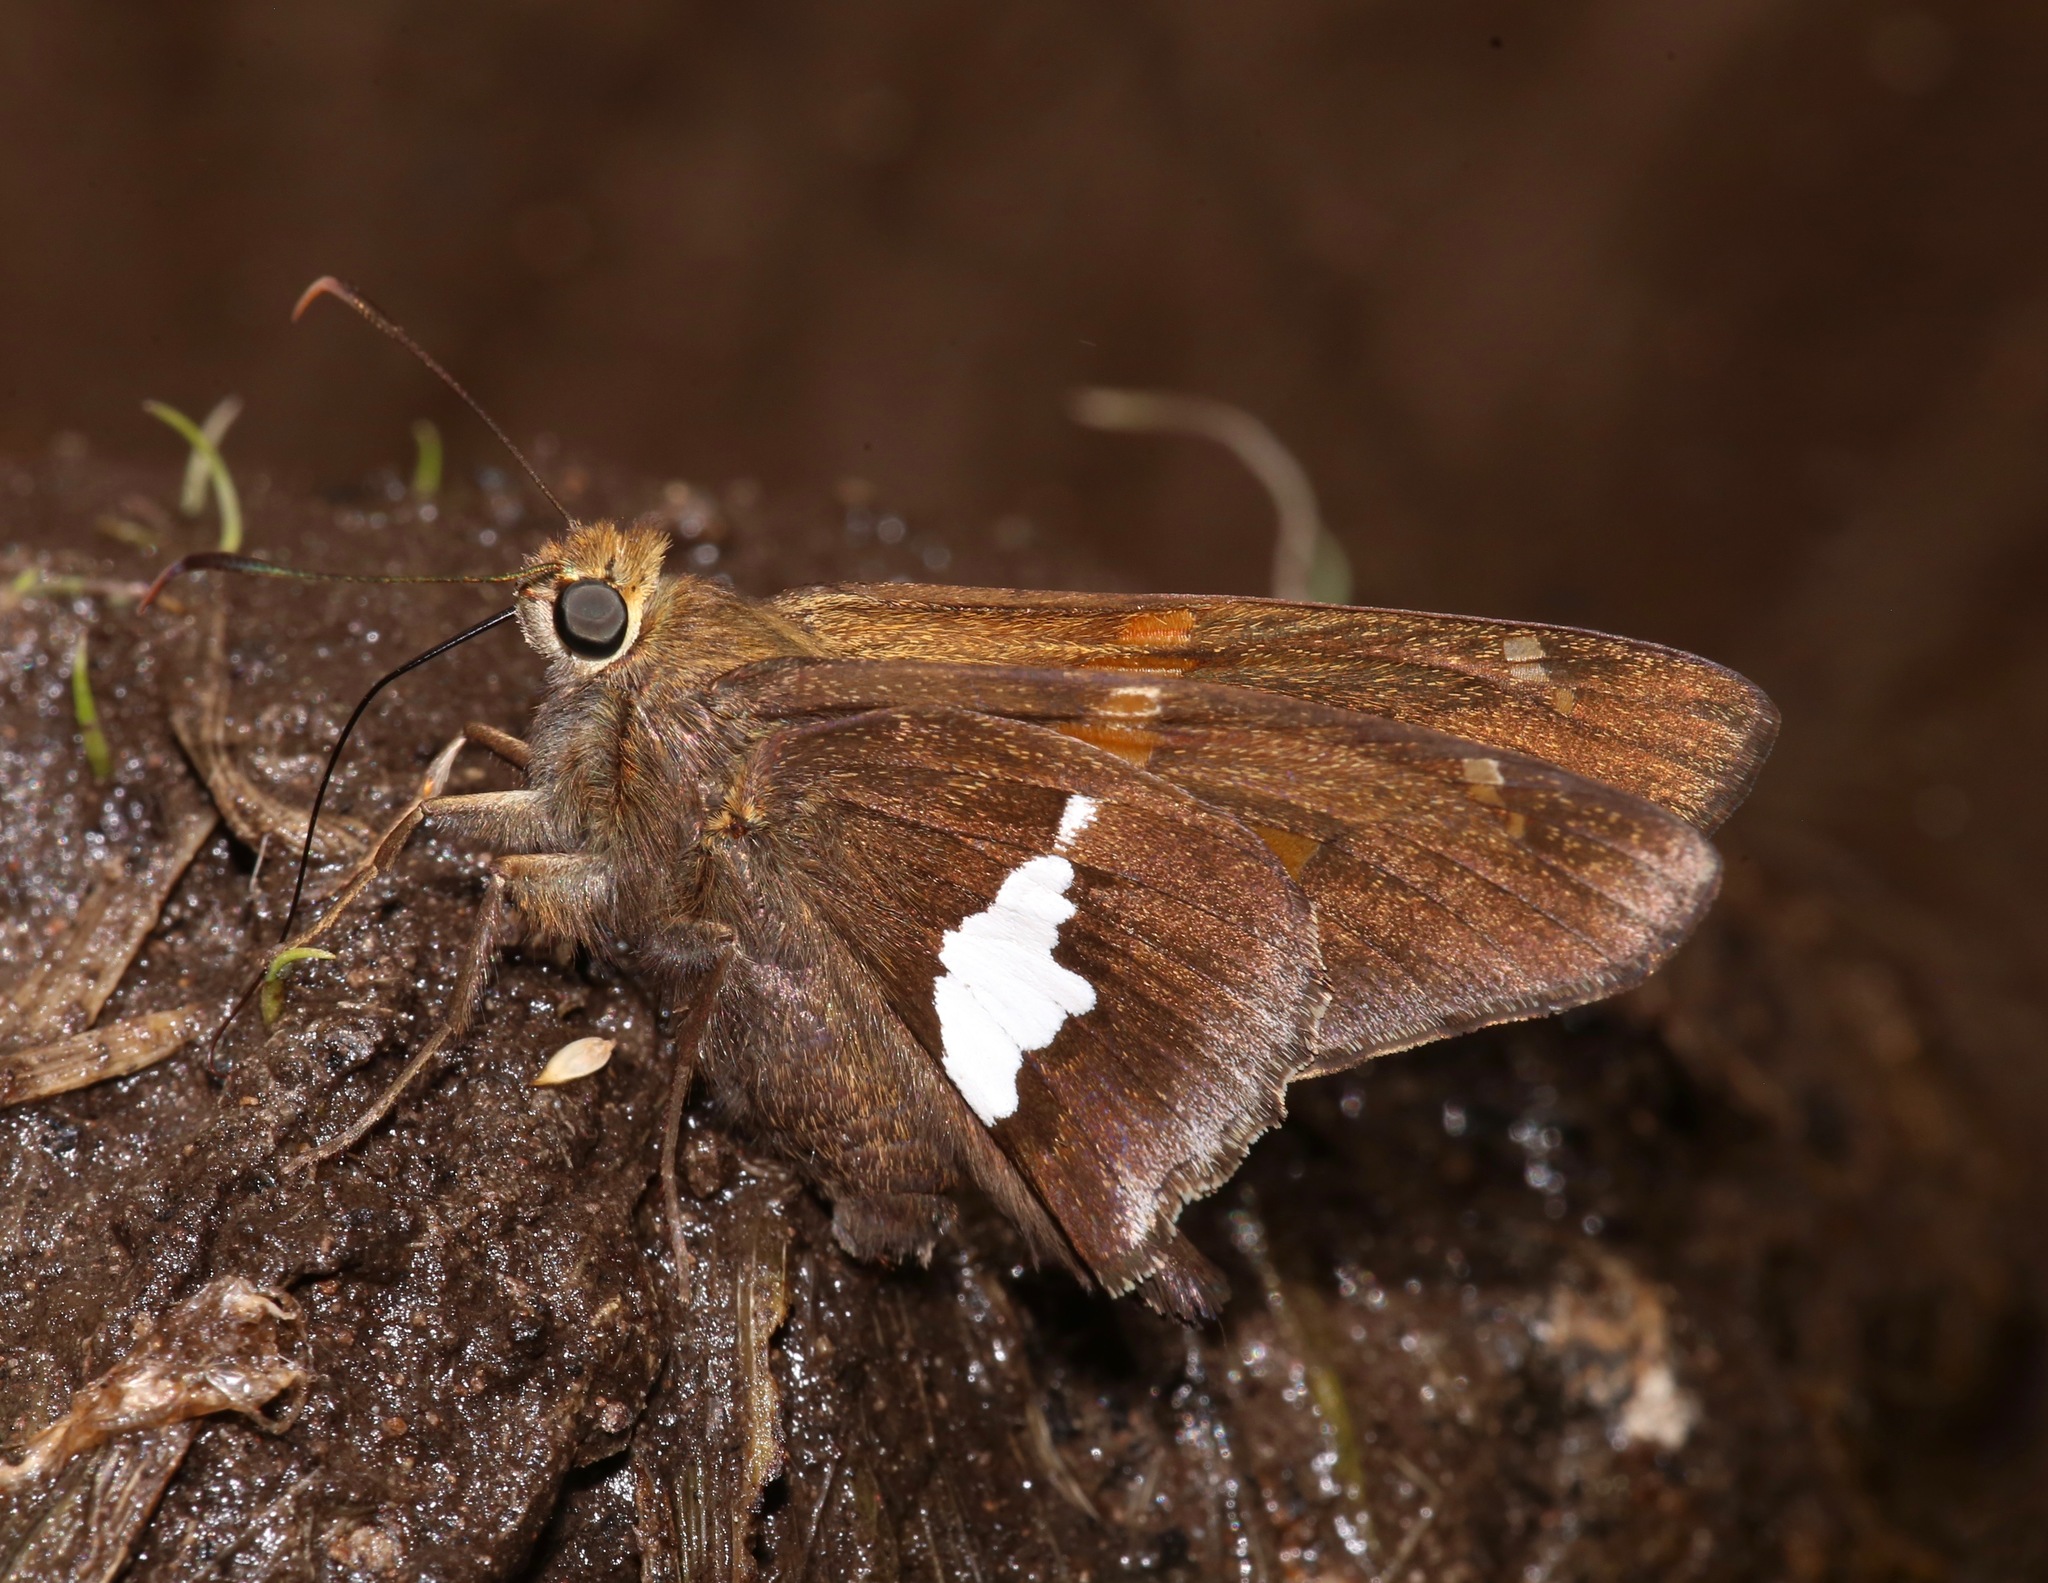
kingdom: Animalia
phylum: Arthropoda
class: Insecta
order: Lepidoptera
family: Hesperiidae
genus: Epargyreus
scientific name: Epargyreus clarus
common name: Silver-spotted skipper
